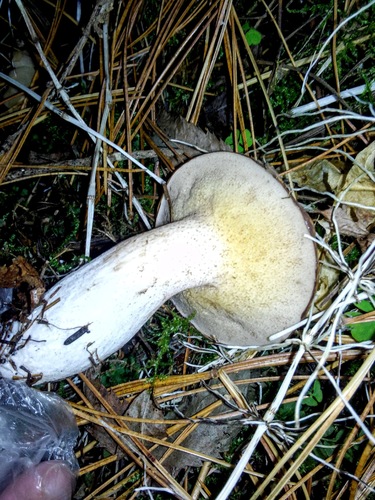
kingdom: Fungi
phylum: Basidiomycota
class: Agaricomycetes
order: Boletales
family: Suillaceae
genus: Suillus
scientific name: Suillus placidus
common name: Slippery white bolete
